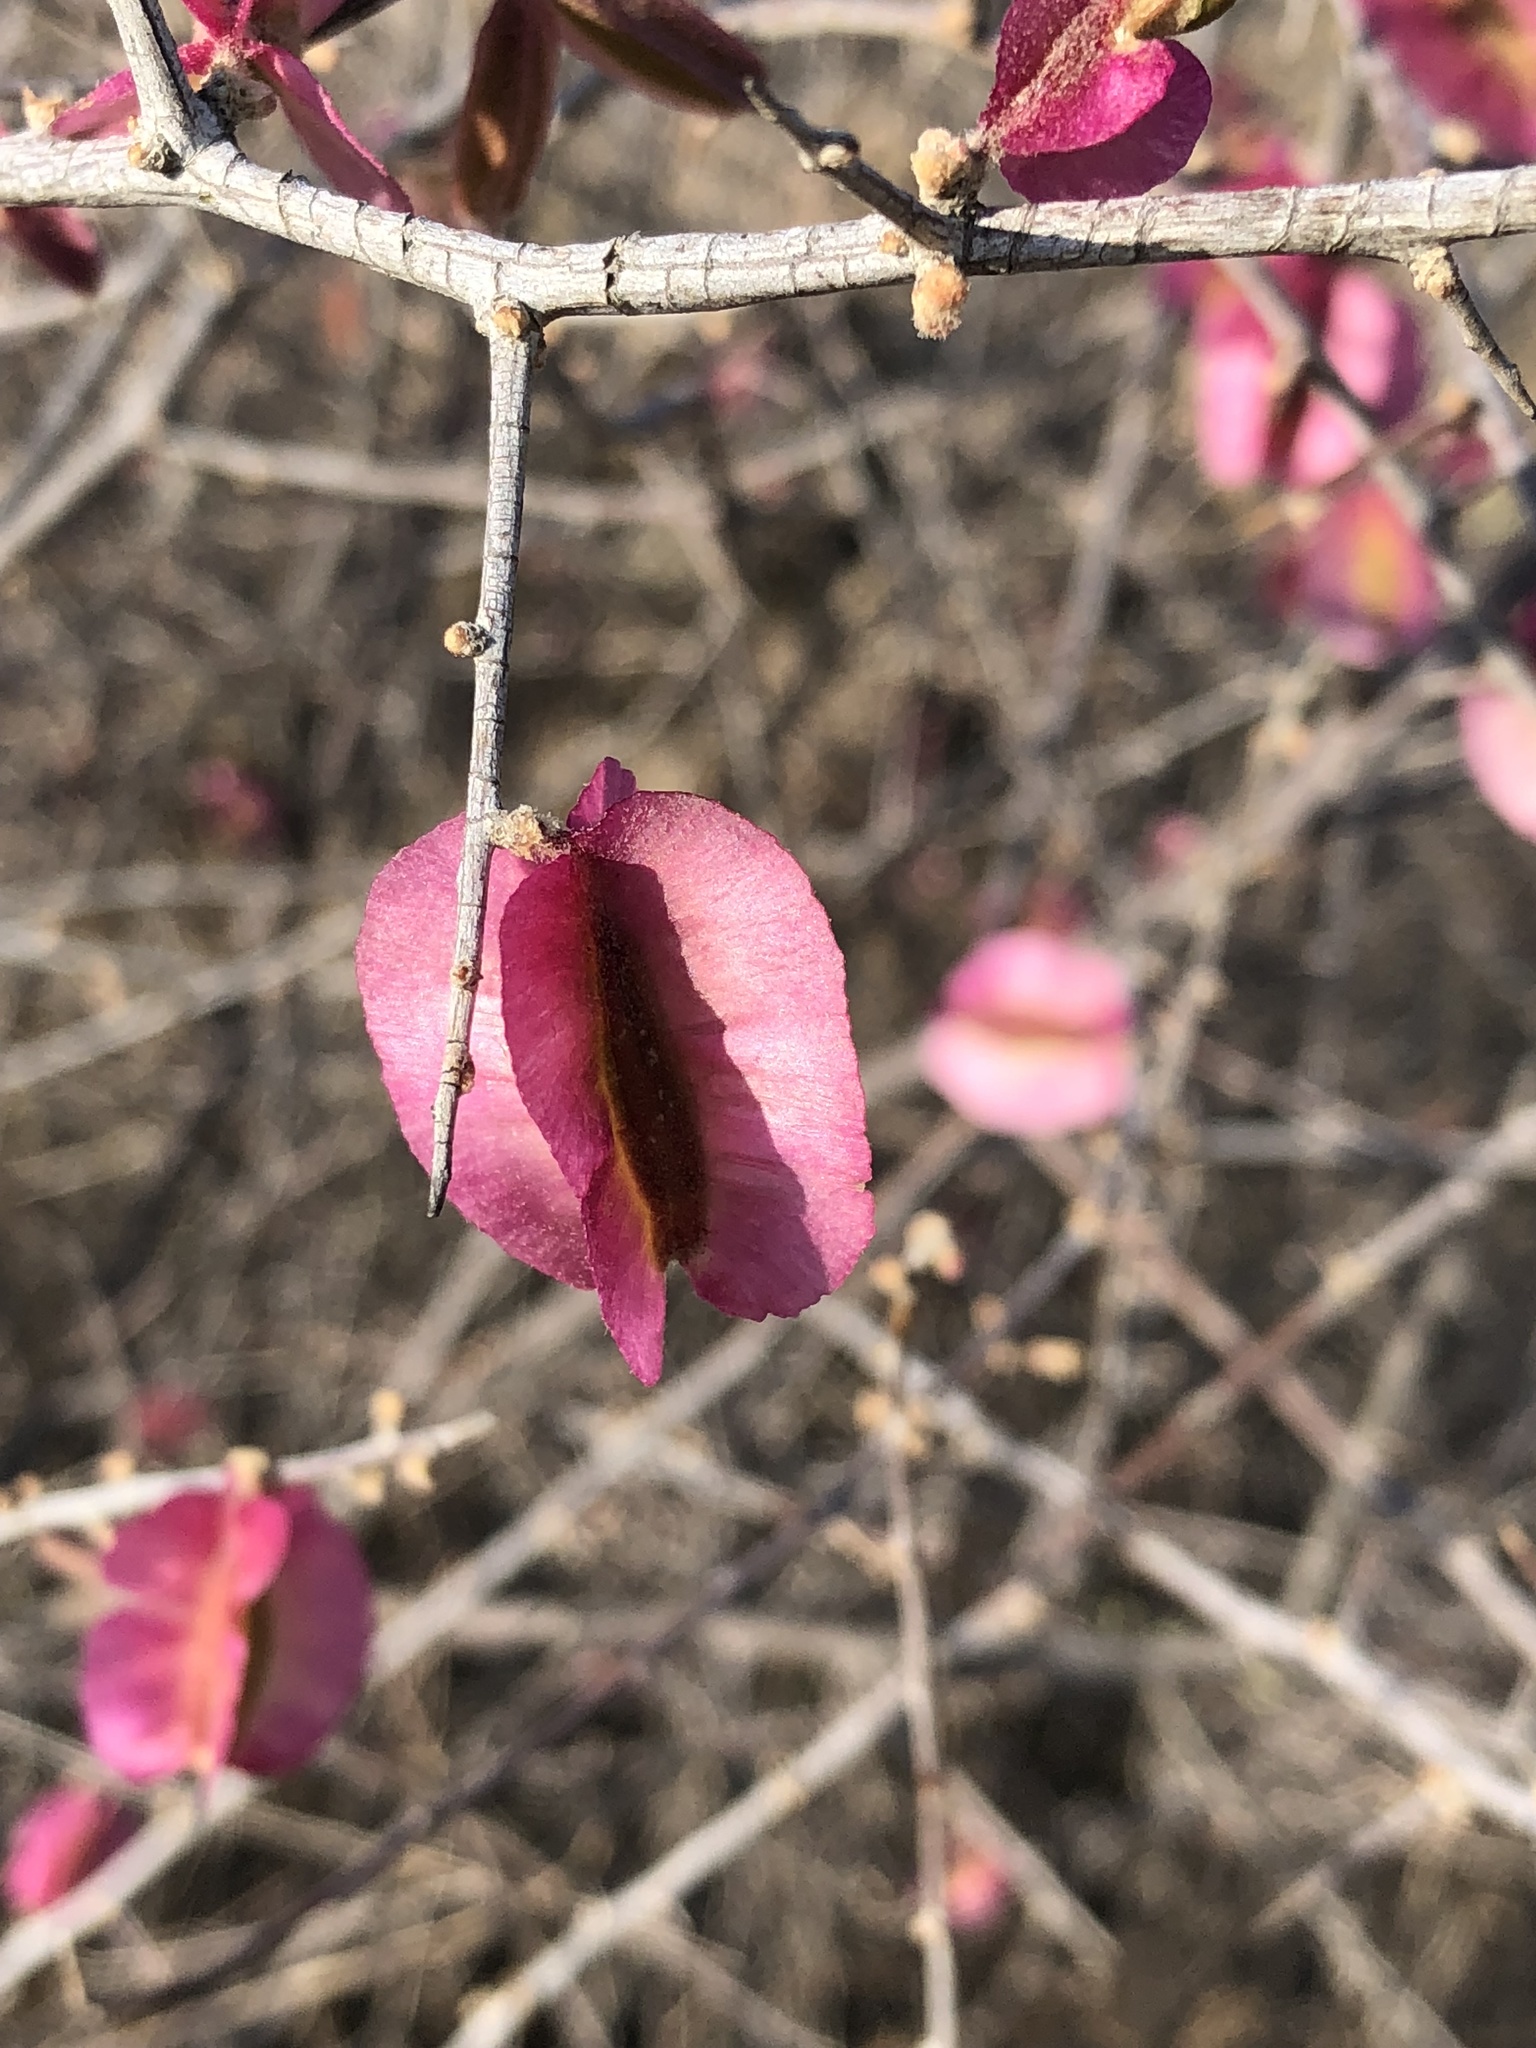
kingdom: Plantae
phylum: Tracheophyta
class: Magnoliopsida
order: Caryophyllales
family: Nyctaginaceae
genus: Phaeoptilum
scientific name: Phaeoptilum spinosum
